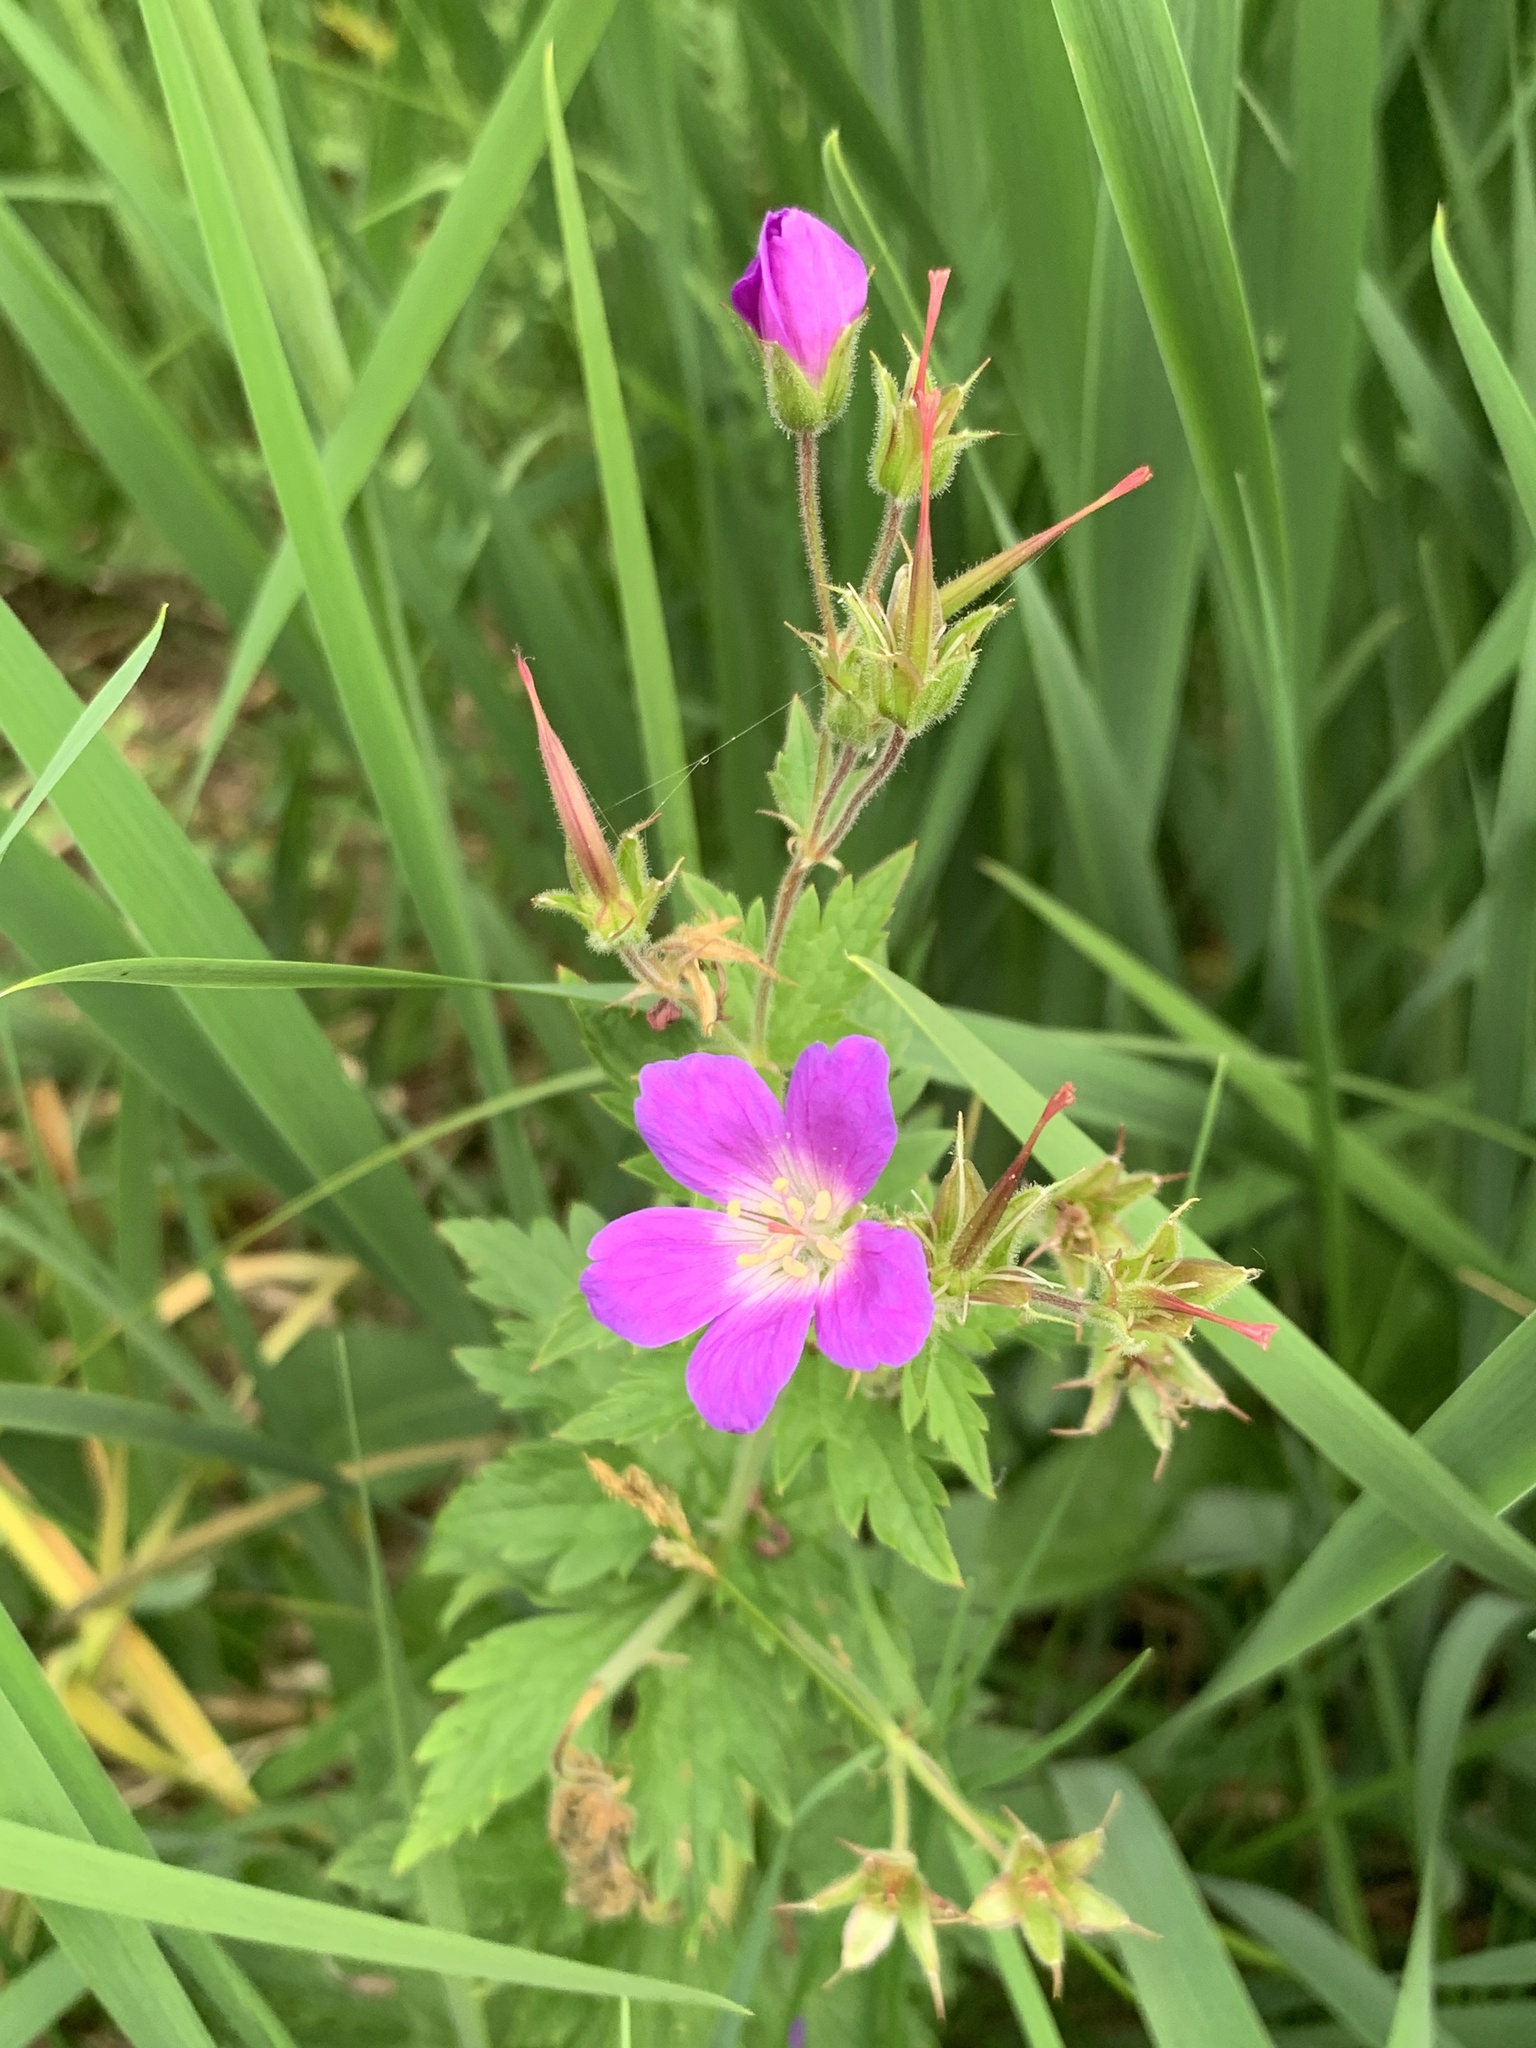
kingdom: Plantae
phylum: Tracheophyta
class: Magnoliopsida
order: Geraniales
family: Geraniaceae
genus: Geranium
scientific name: Geranium sylvaticum
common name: Wood crane's-bill
